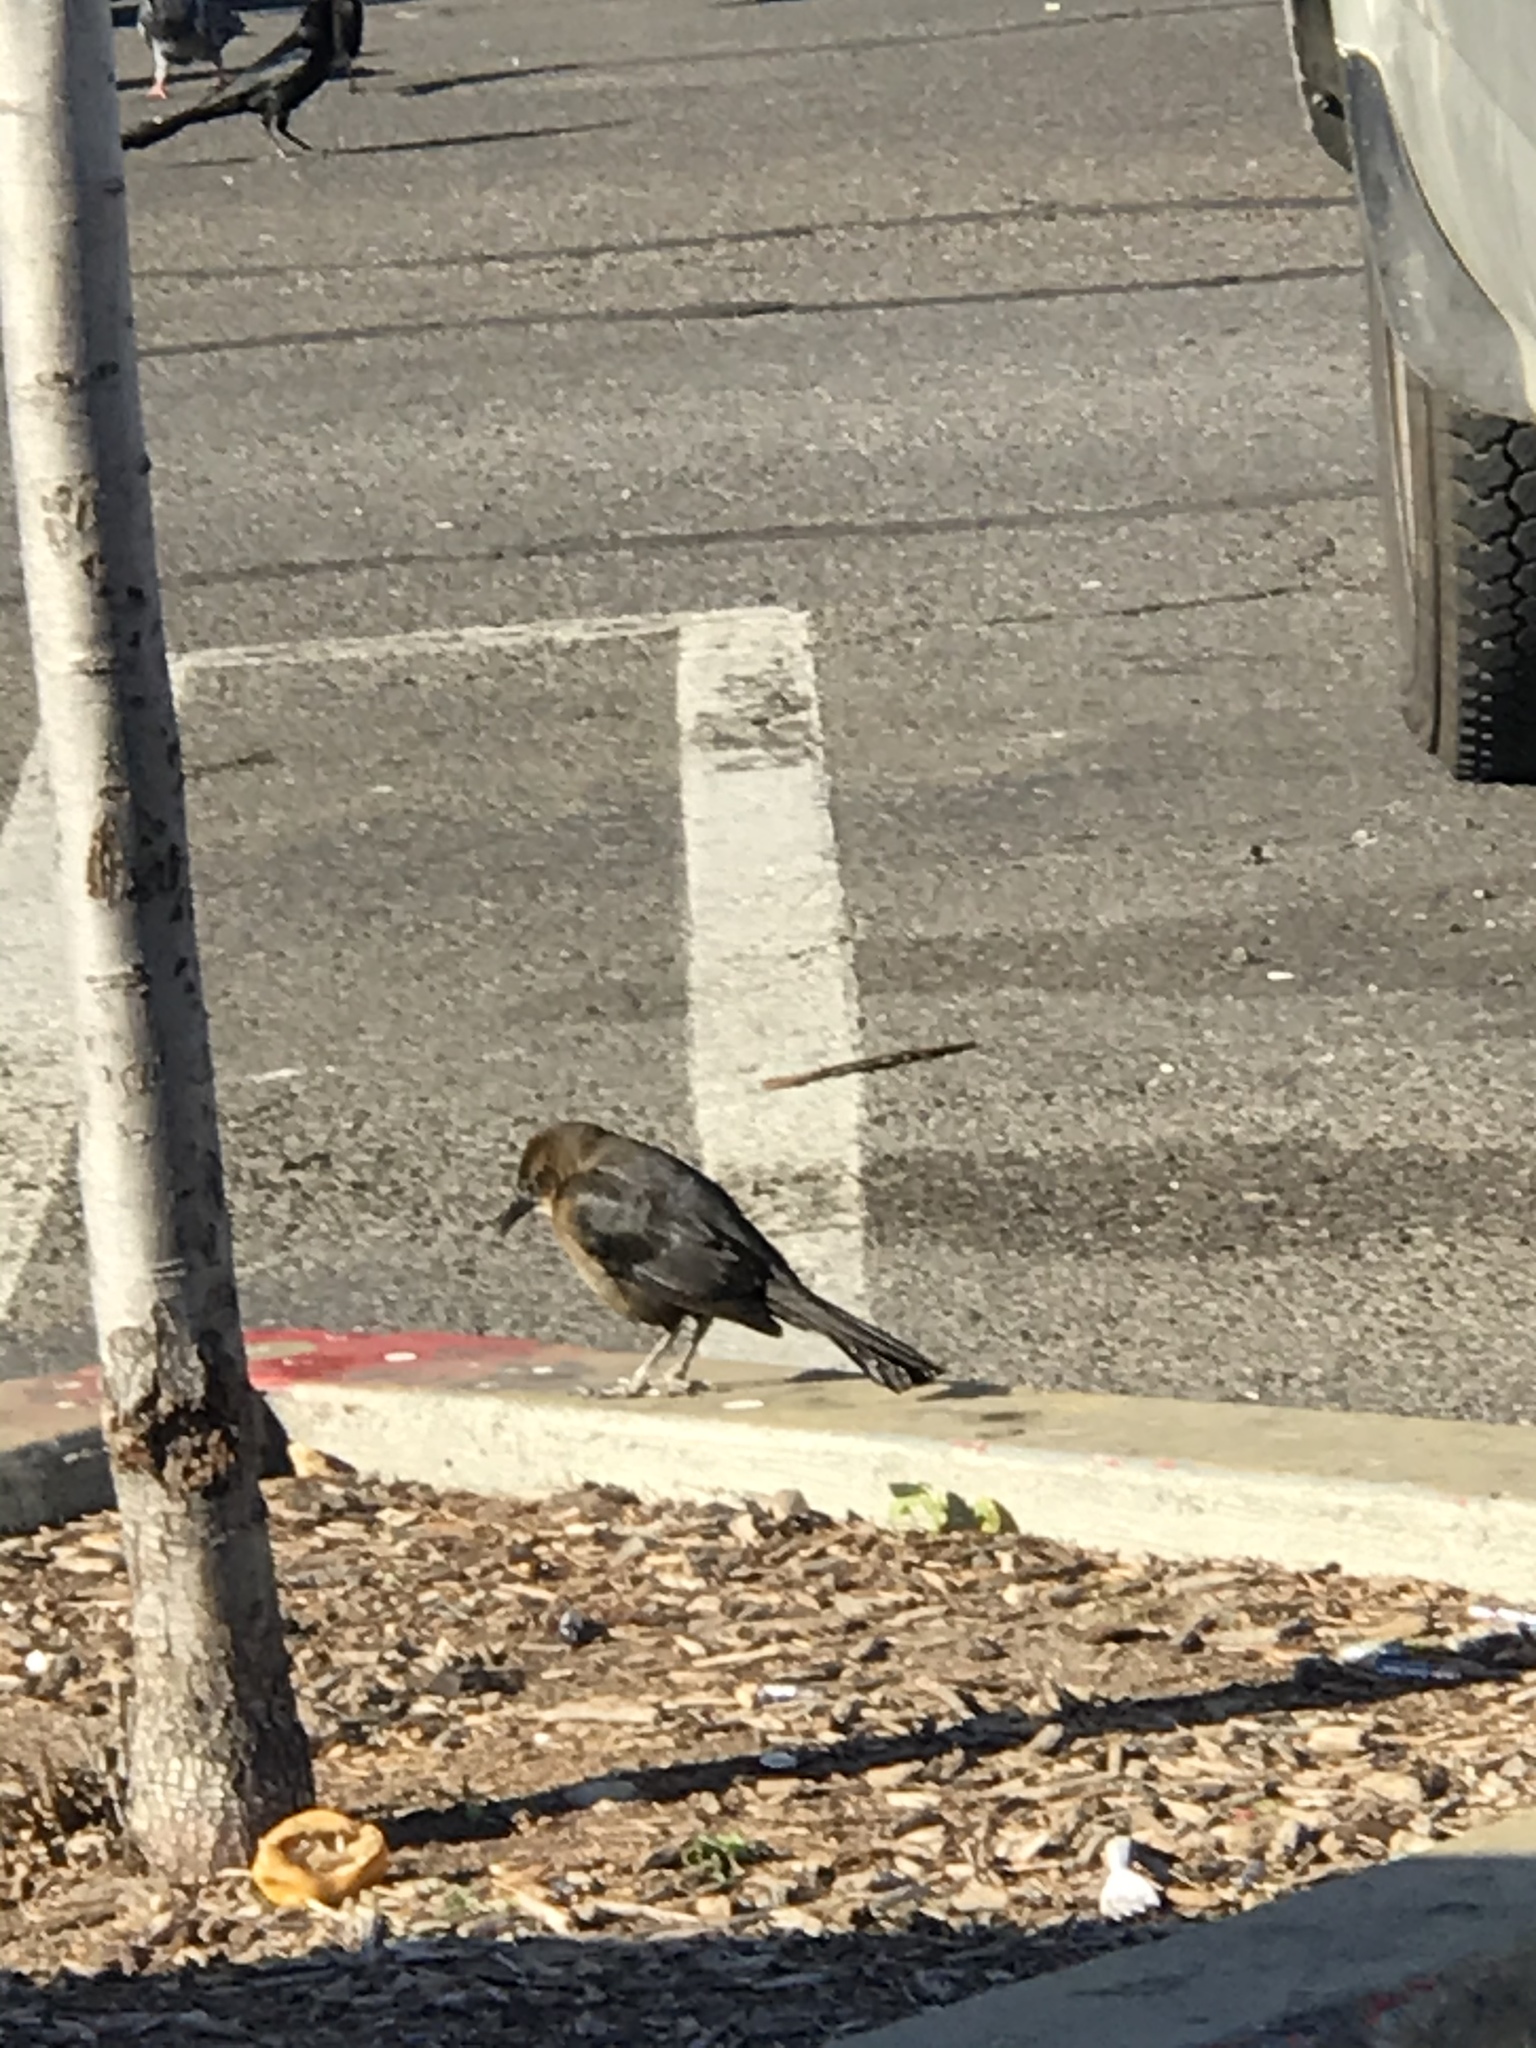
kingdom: Animalia
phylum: Chordata
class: Aves
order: Passeriformes
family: Icteridae
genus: Quiscalus
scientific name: Quiscalus mexicanus
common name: Great-tailed grackle
